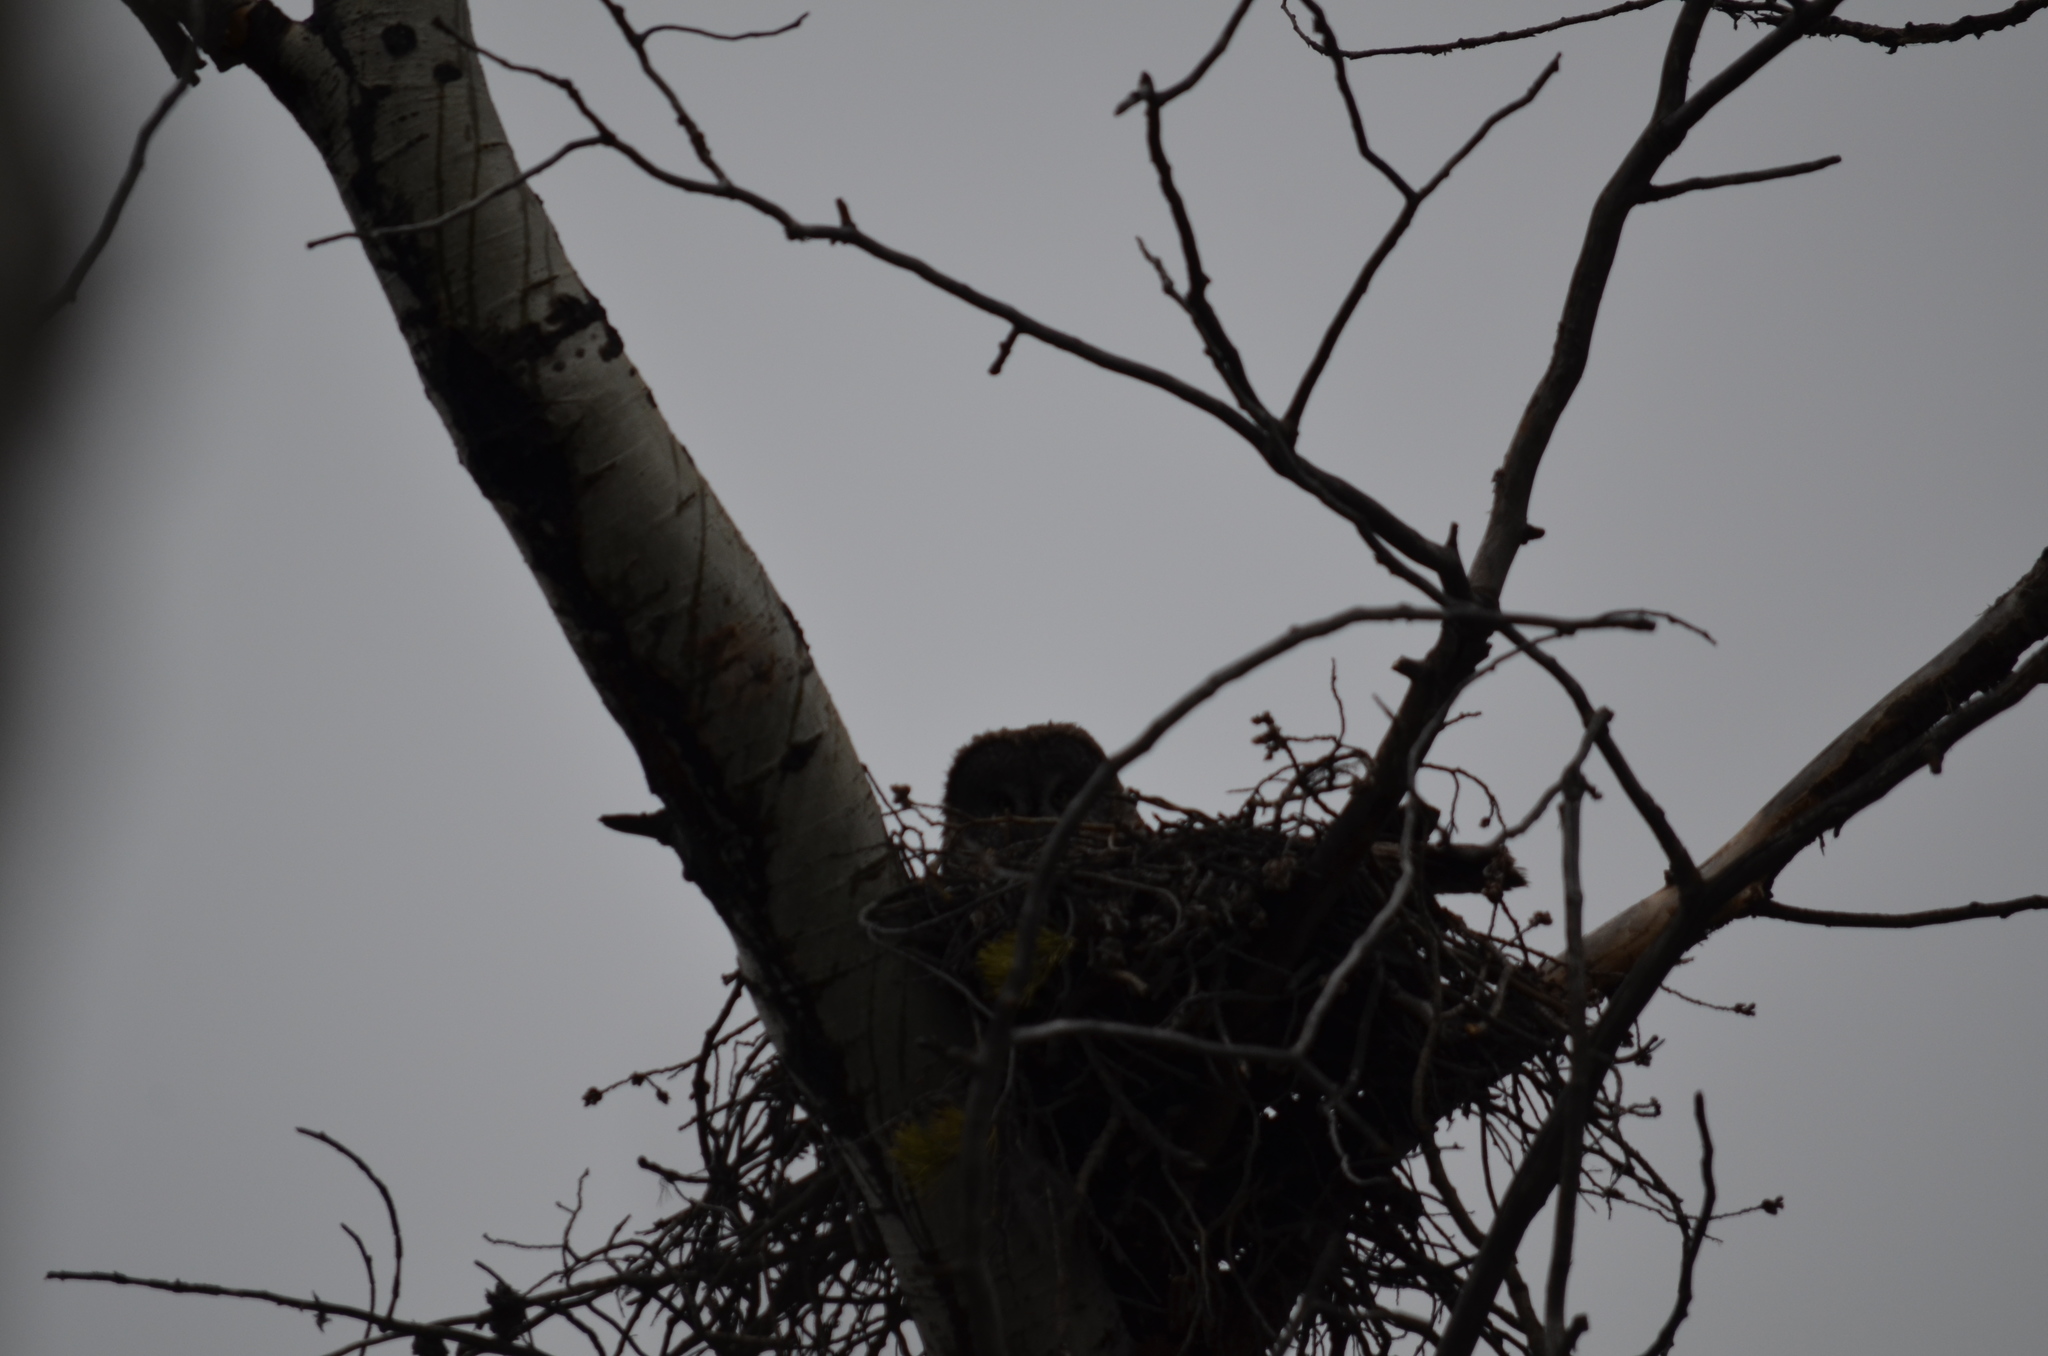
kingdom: Animalia
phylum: Chordata
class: Aves
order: Strigiformes
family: Strigidae
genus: Strix
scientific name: Strix nebulosa
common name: Great grey owl
